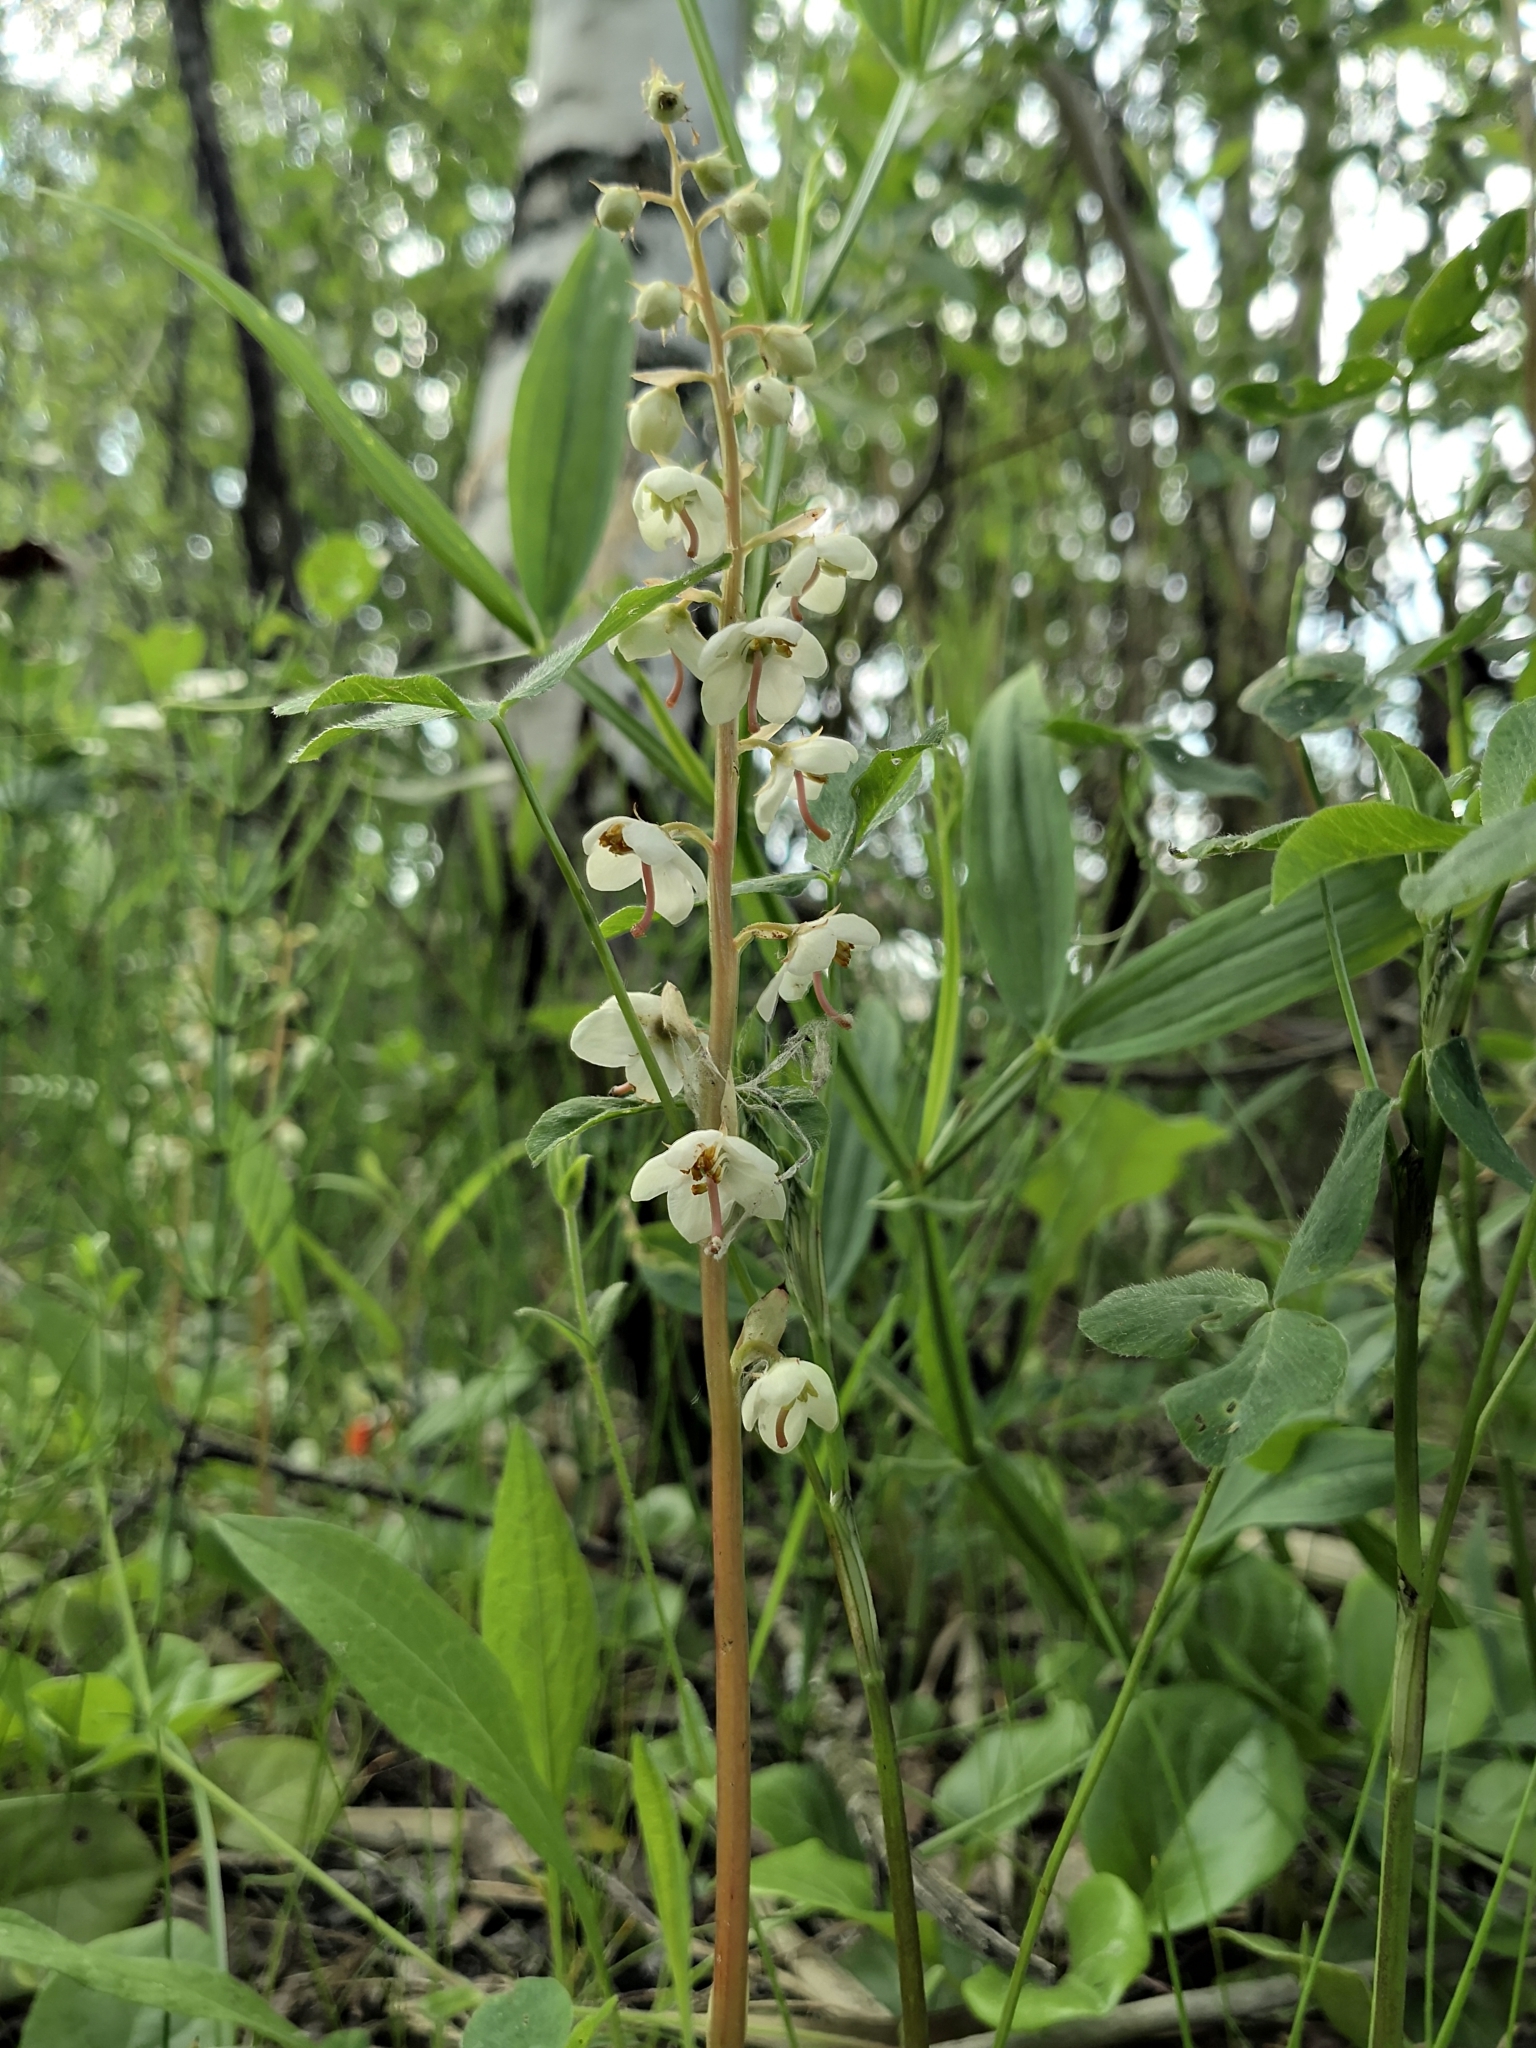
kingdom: Plantae
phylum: Tracheophyta
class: Magnoliopsida
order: Ericales
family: Ericaceae
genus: Pyrola
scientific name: Pyrola rotundifolia
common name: Round-leaved wintergreen
